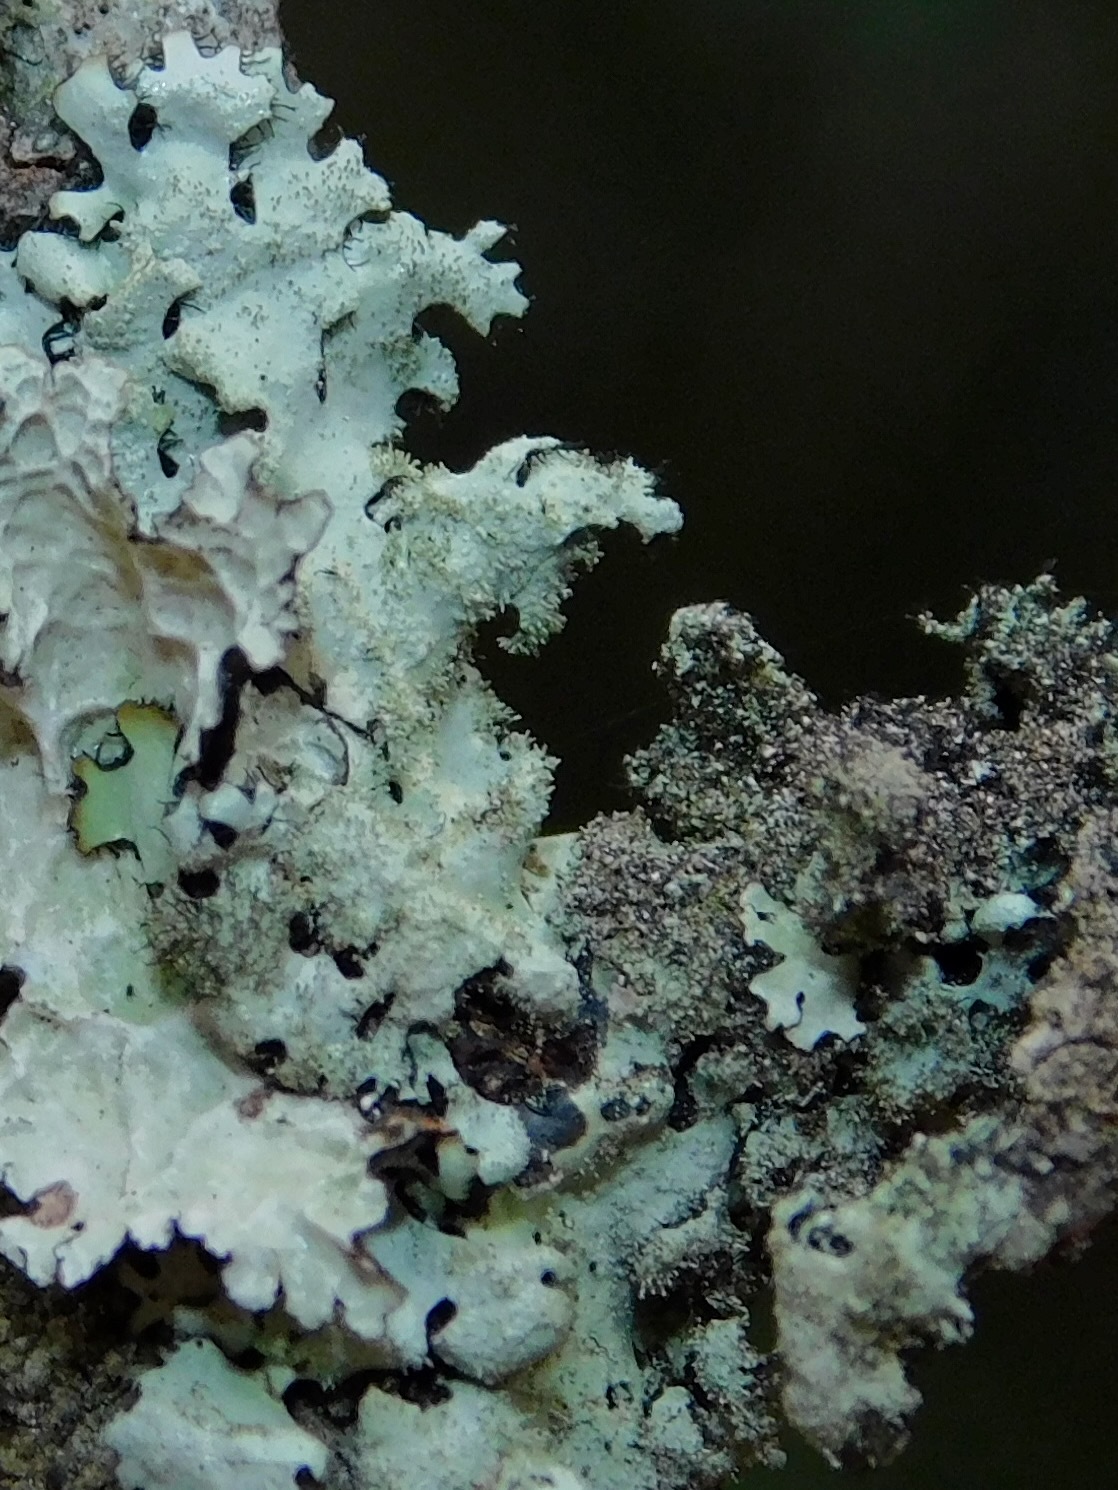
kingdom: Fungi
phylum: Ascomycota
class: Lecanoromycetes
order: Lecanorales
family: Parmeliaceae
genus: Imshaugia
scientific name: Imshaugia aleurites
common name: Salted starburst lichen
